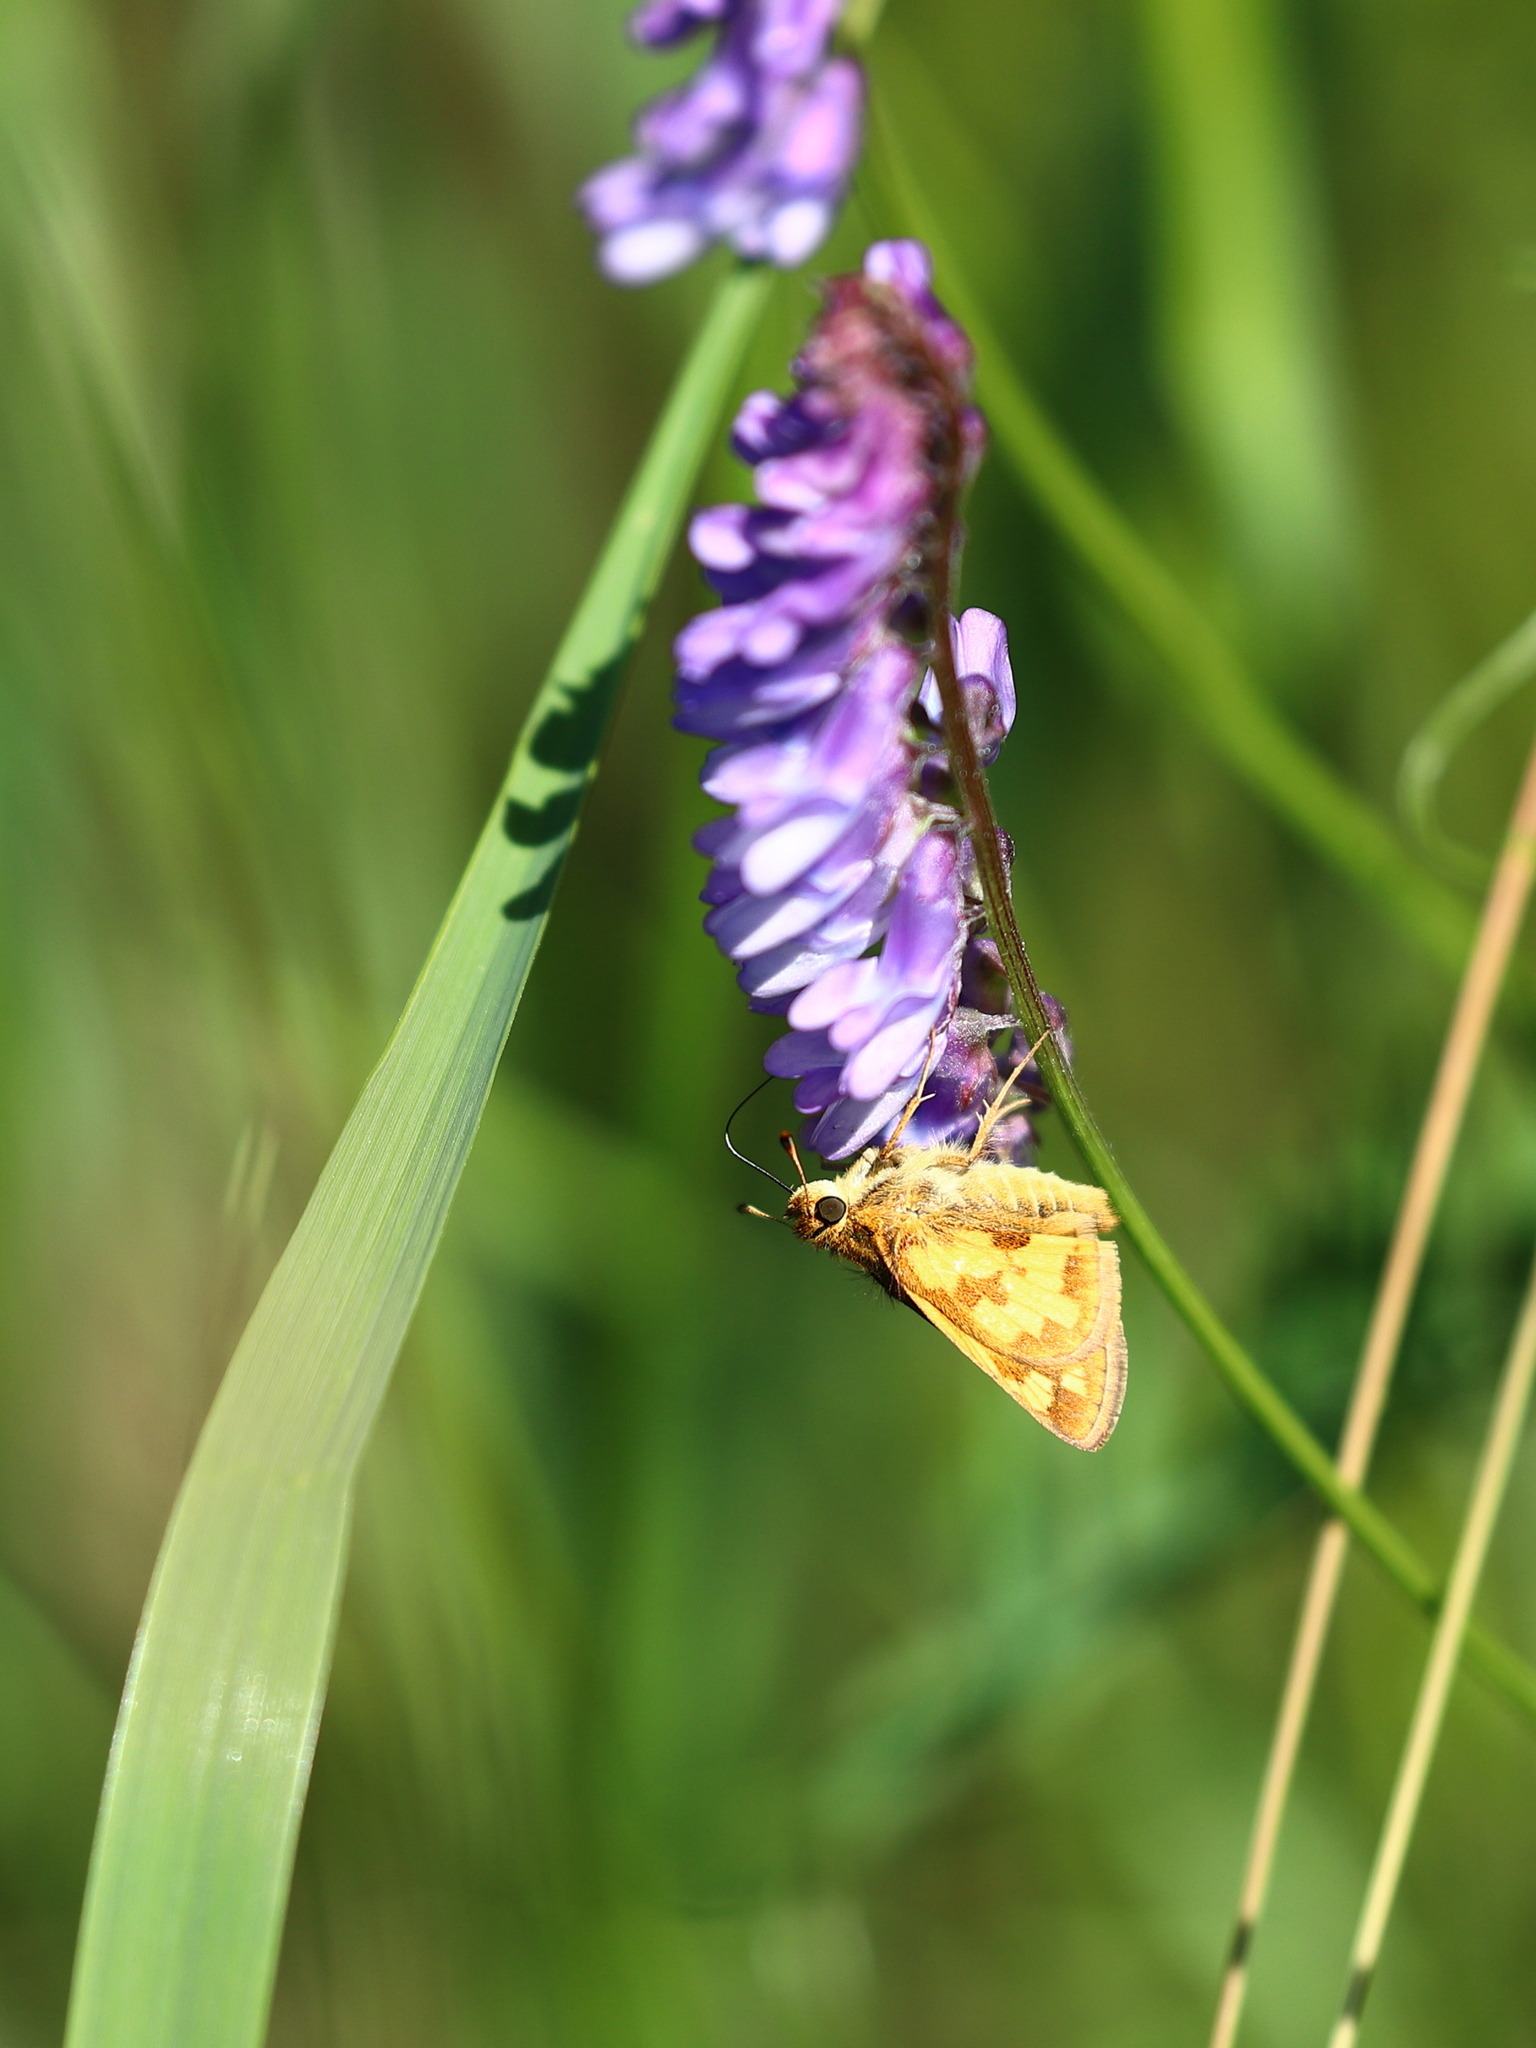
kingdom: Animalia
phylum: Arthropoda
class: Insecta
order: Lepidoptera
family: Hesperiidae
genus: Polites
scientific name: Polites coras
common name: Peck's skipper
